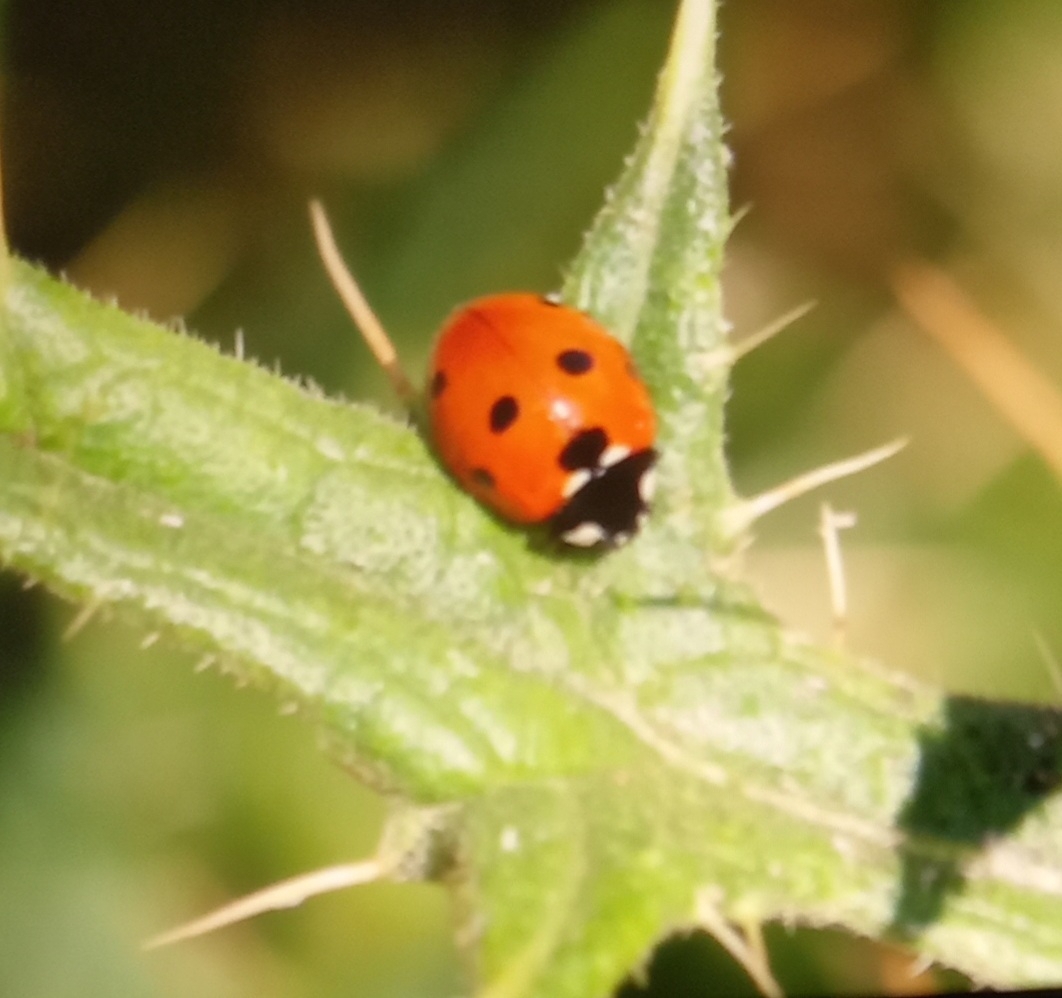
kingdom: Animalia
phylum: Arthropoda
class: Insecta
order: Coleoptera
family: Coccinellidae
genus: Coccinella
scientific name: Coccinella septempunctata
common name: Sevenspotted lady beetle
